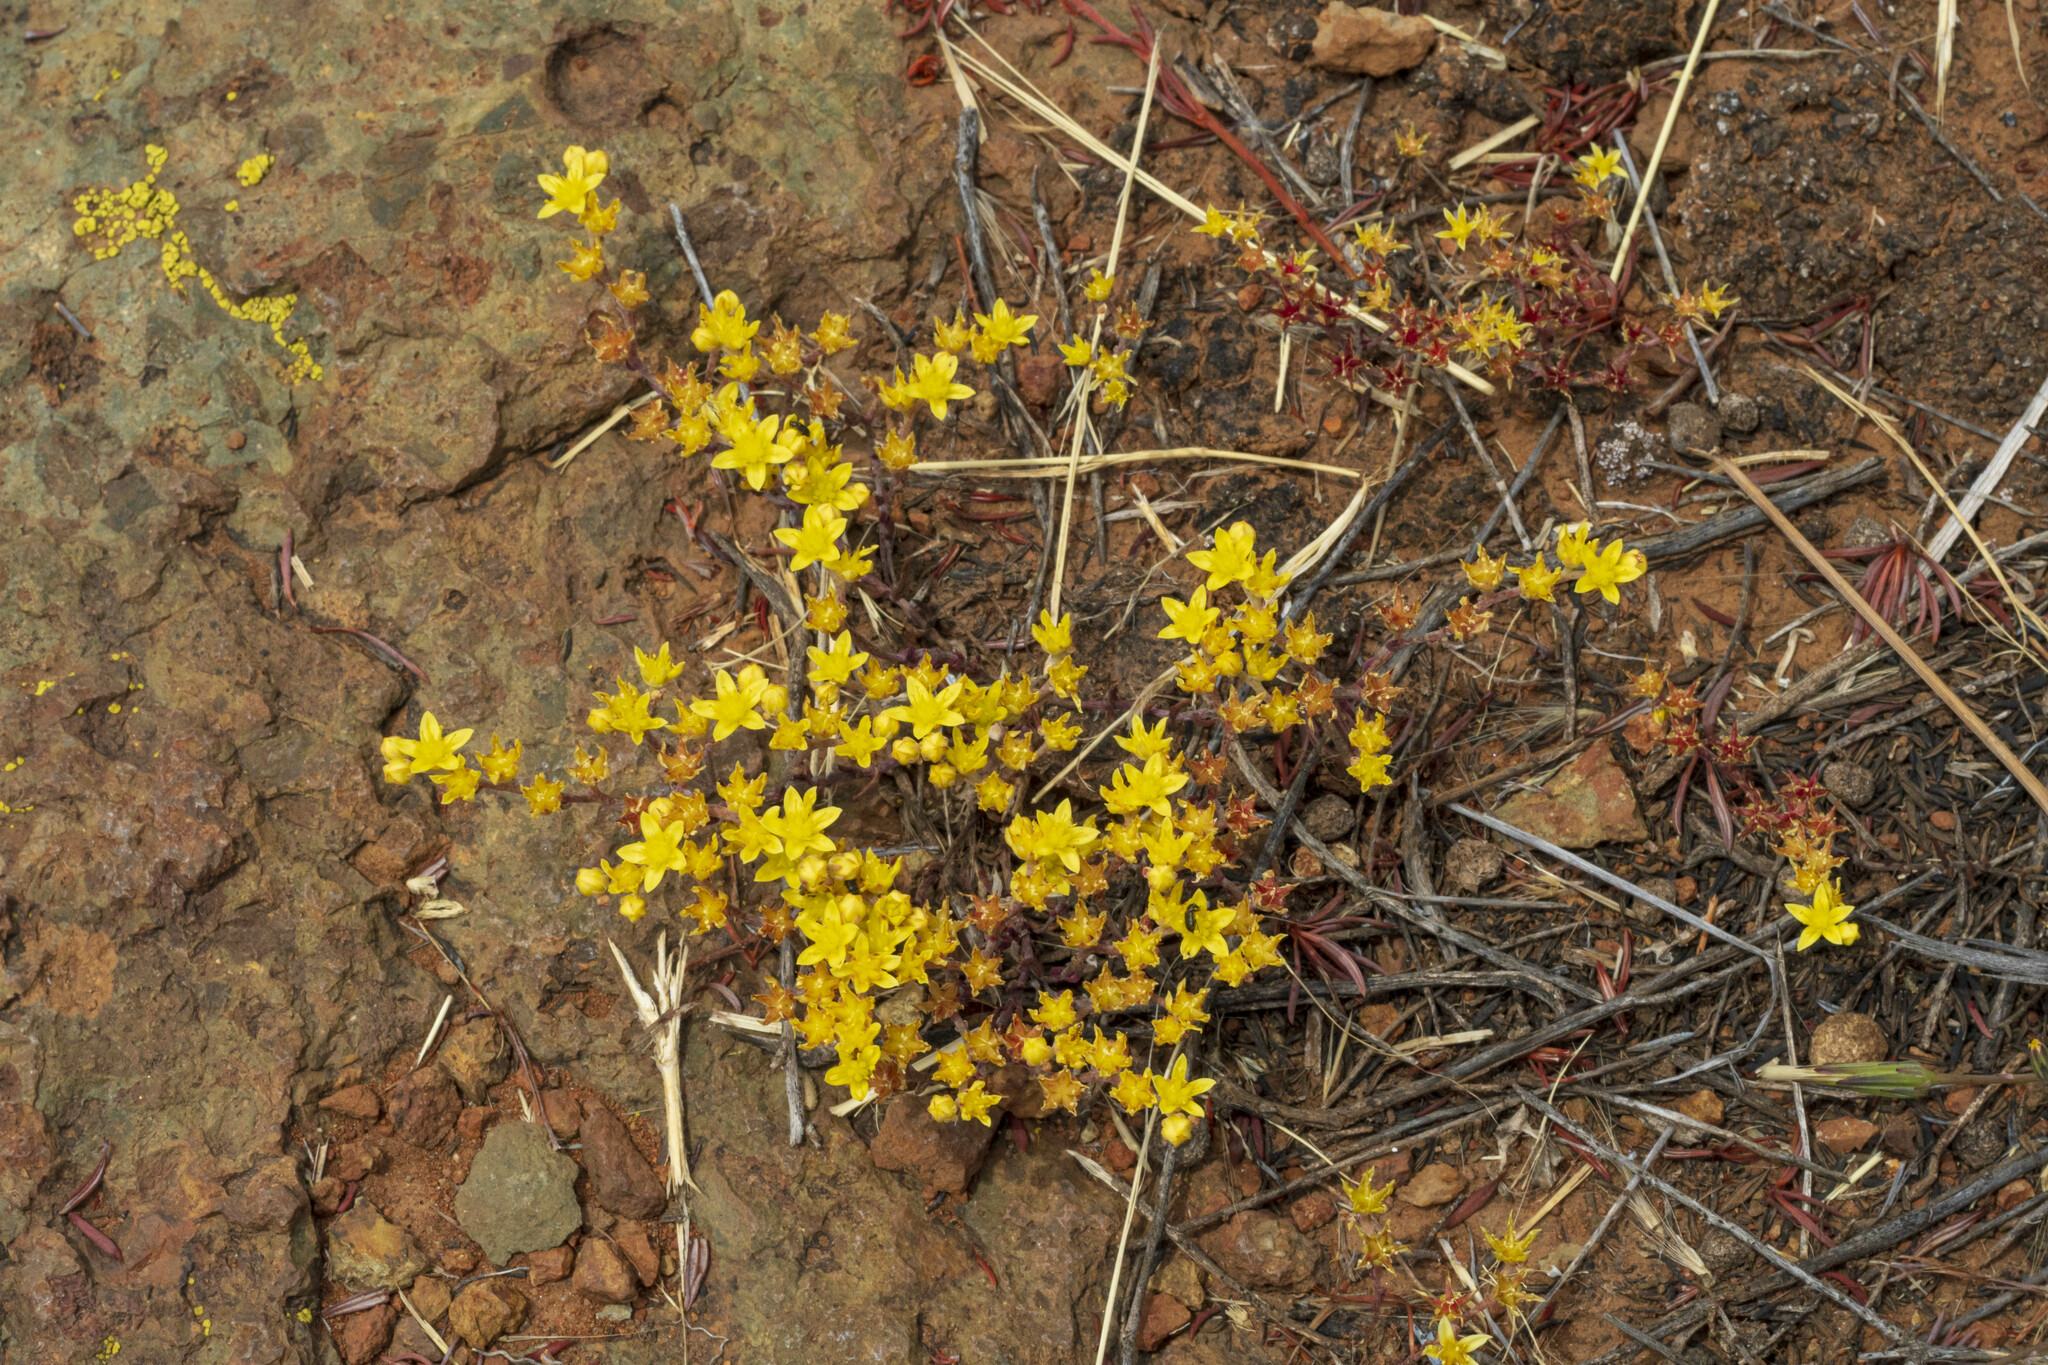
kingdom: Plantae
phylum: Tracheophyta
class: Magnoliopsida
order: Saxifragales
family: Crassulaceae
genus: Dudleya
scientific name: Dudleya variegata
